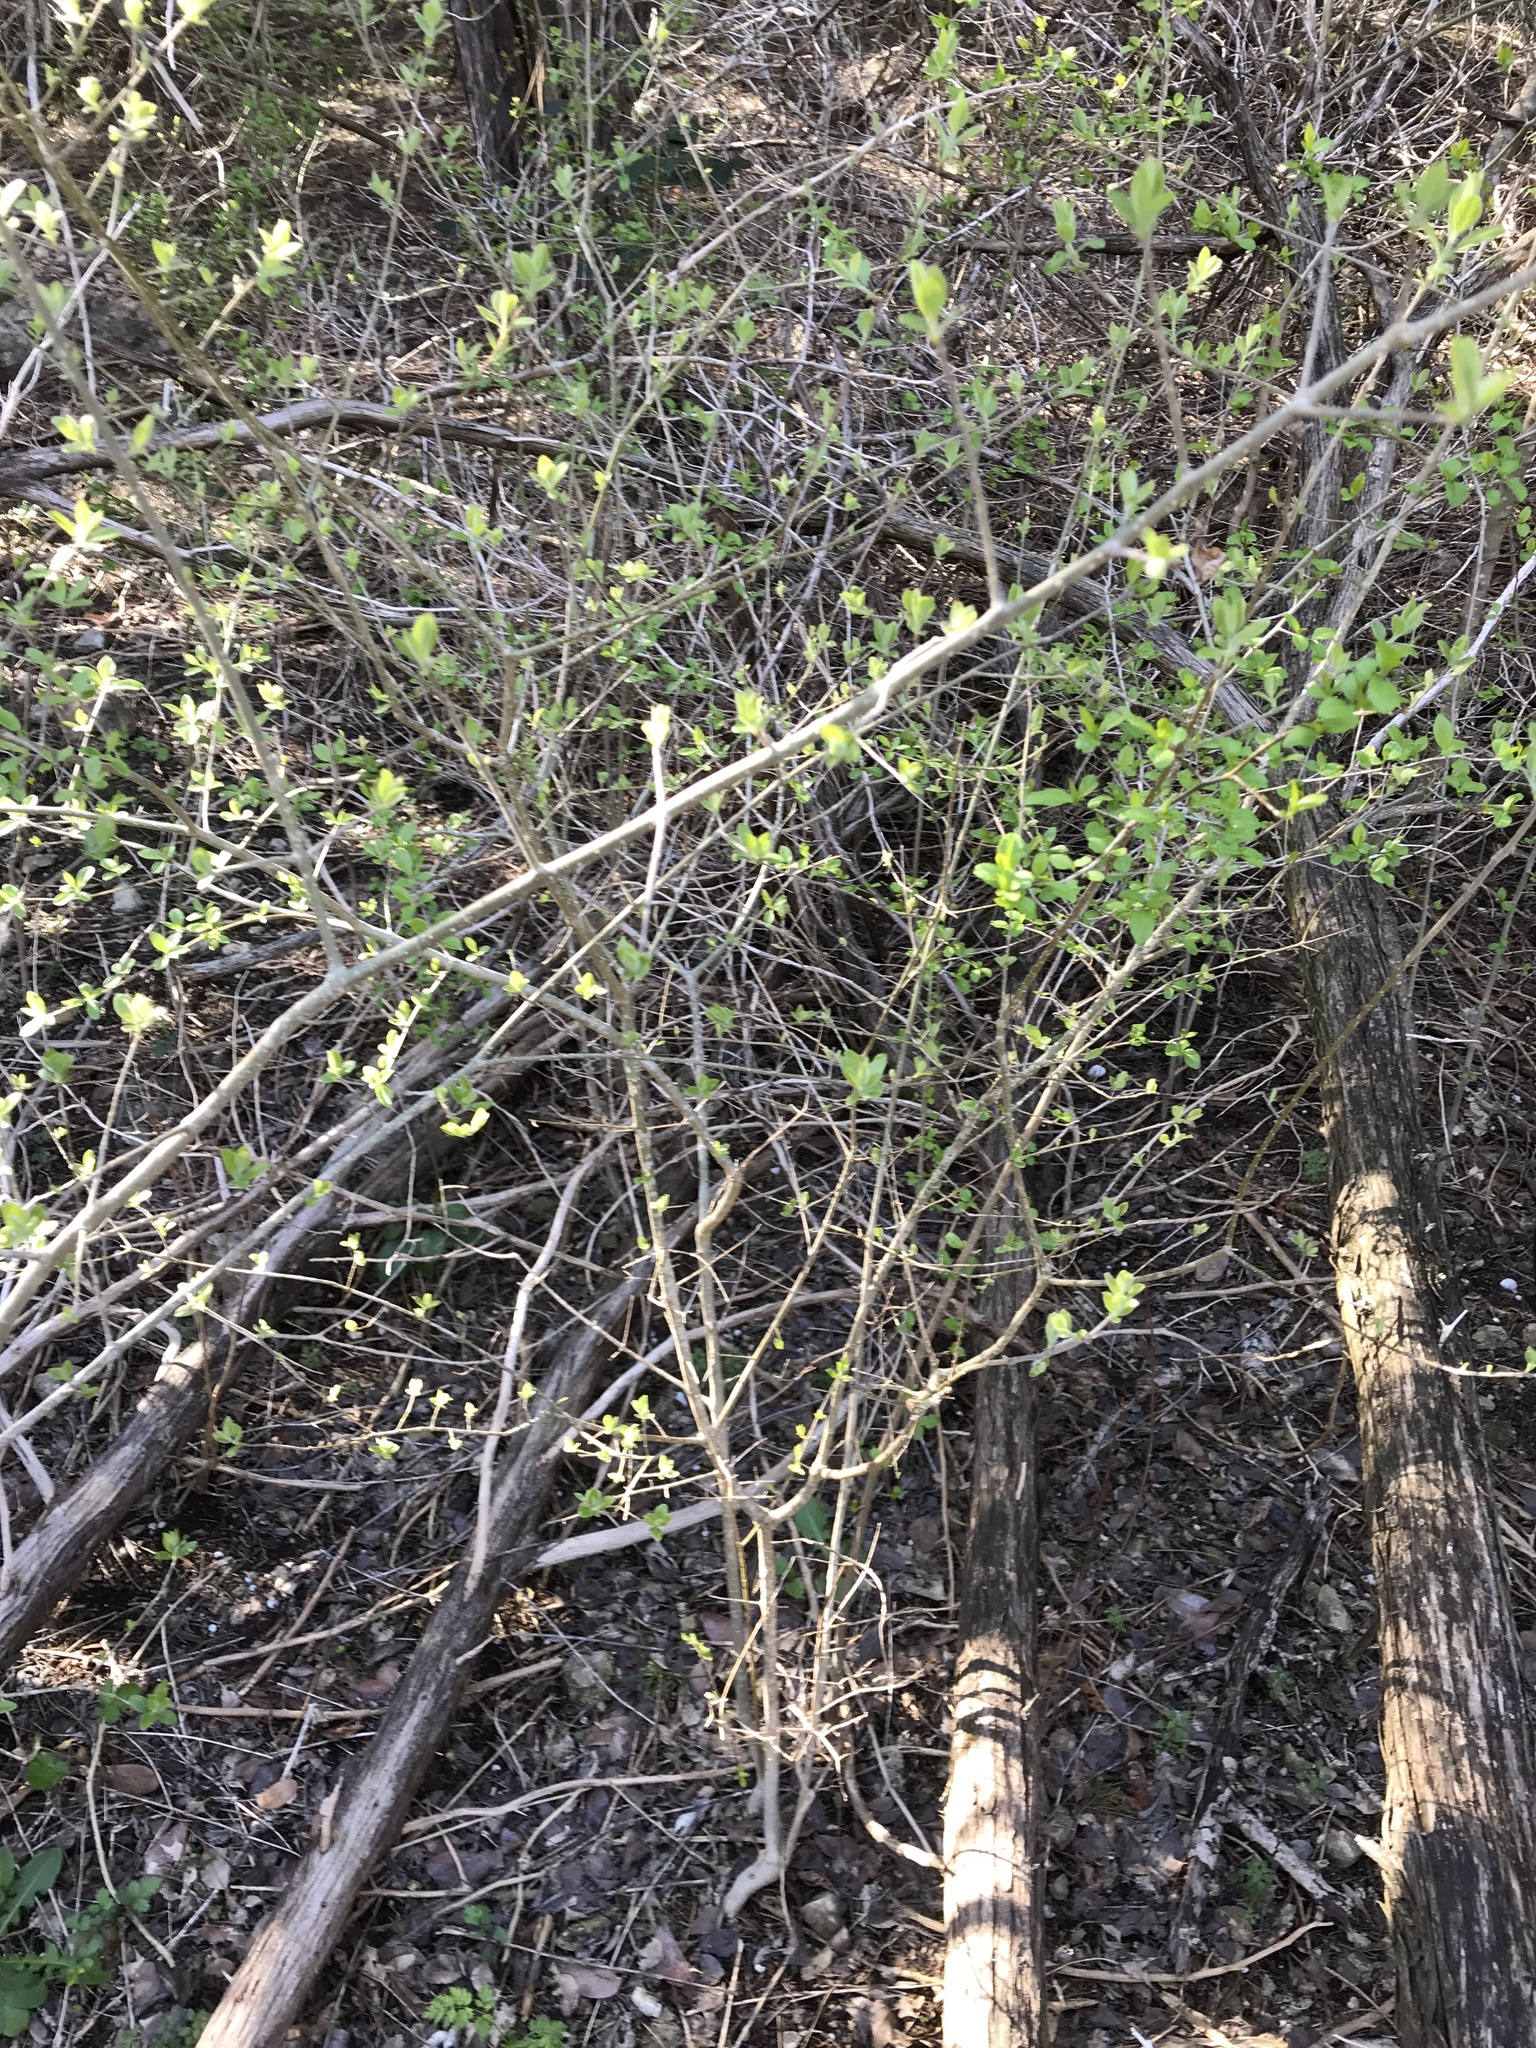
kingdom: Plantae
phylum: Tracheophyta
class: Magnoliopsida
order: Lamiales
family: Oleaceae
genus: Forestiera
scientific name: Forestiera pubescens
